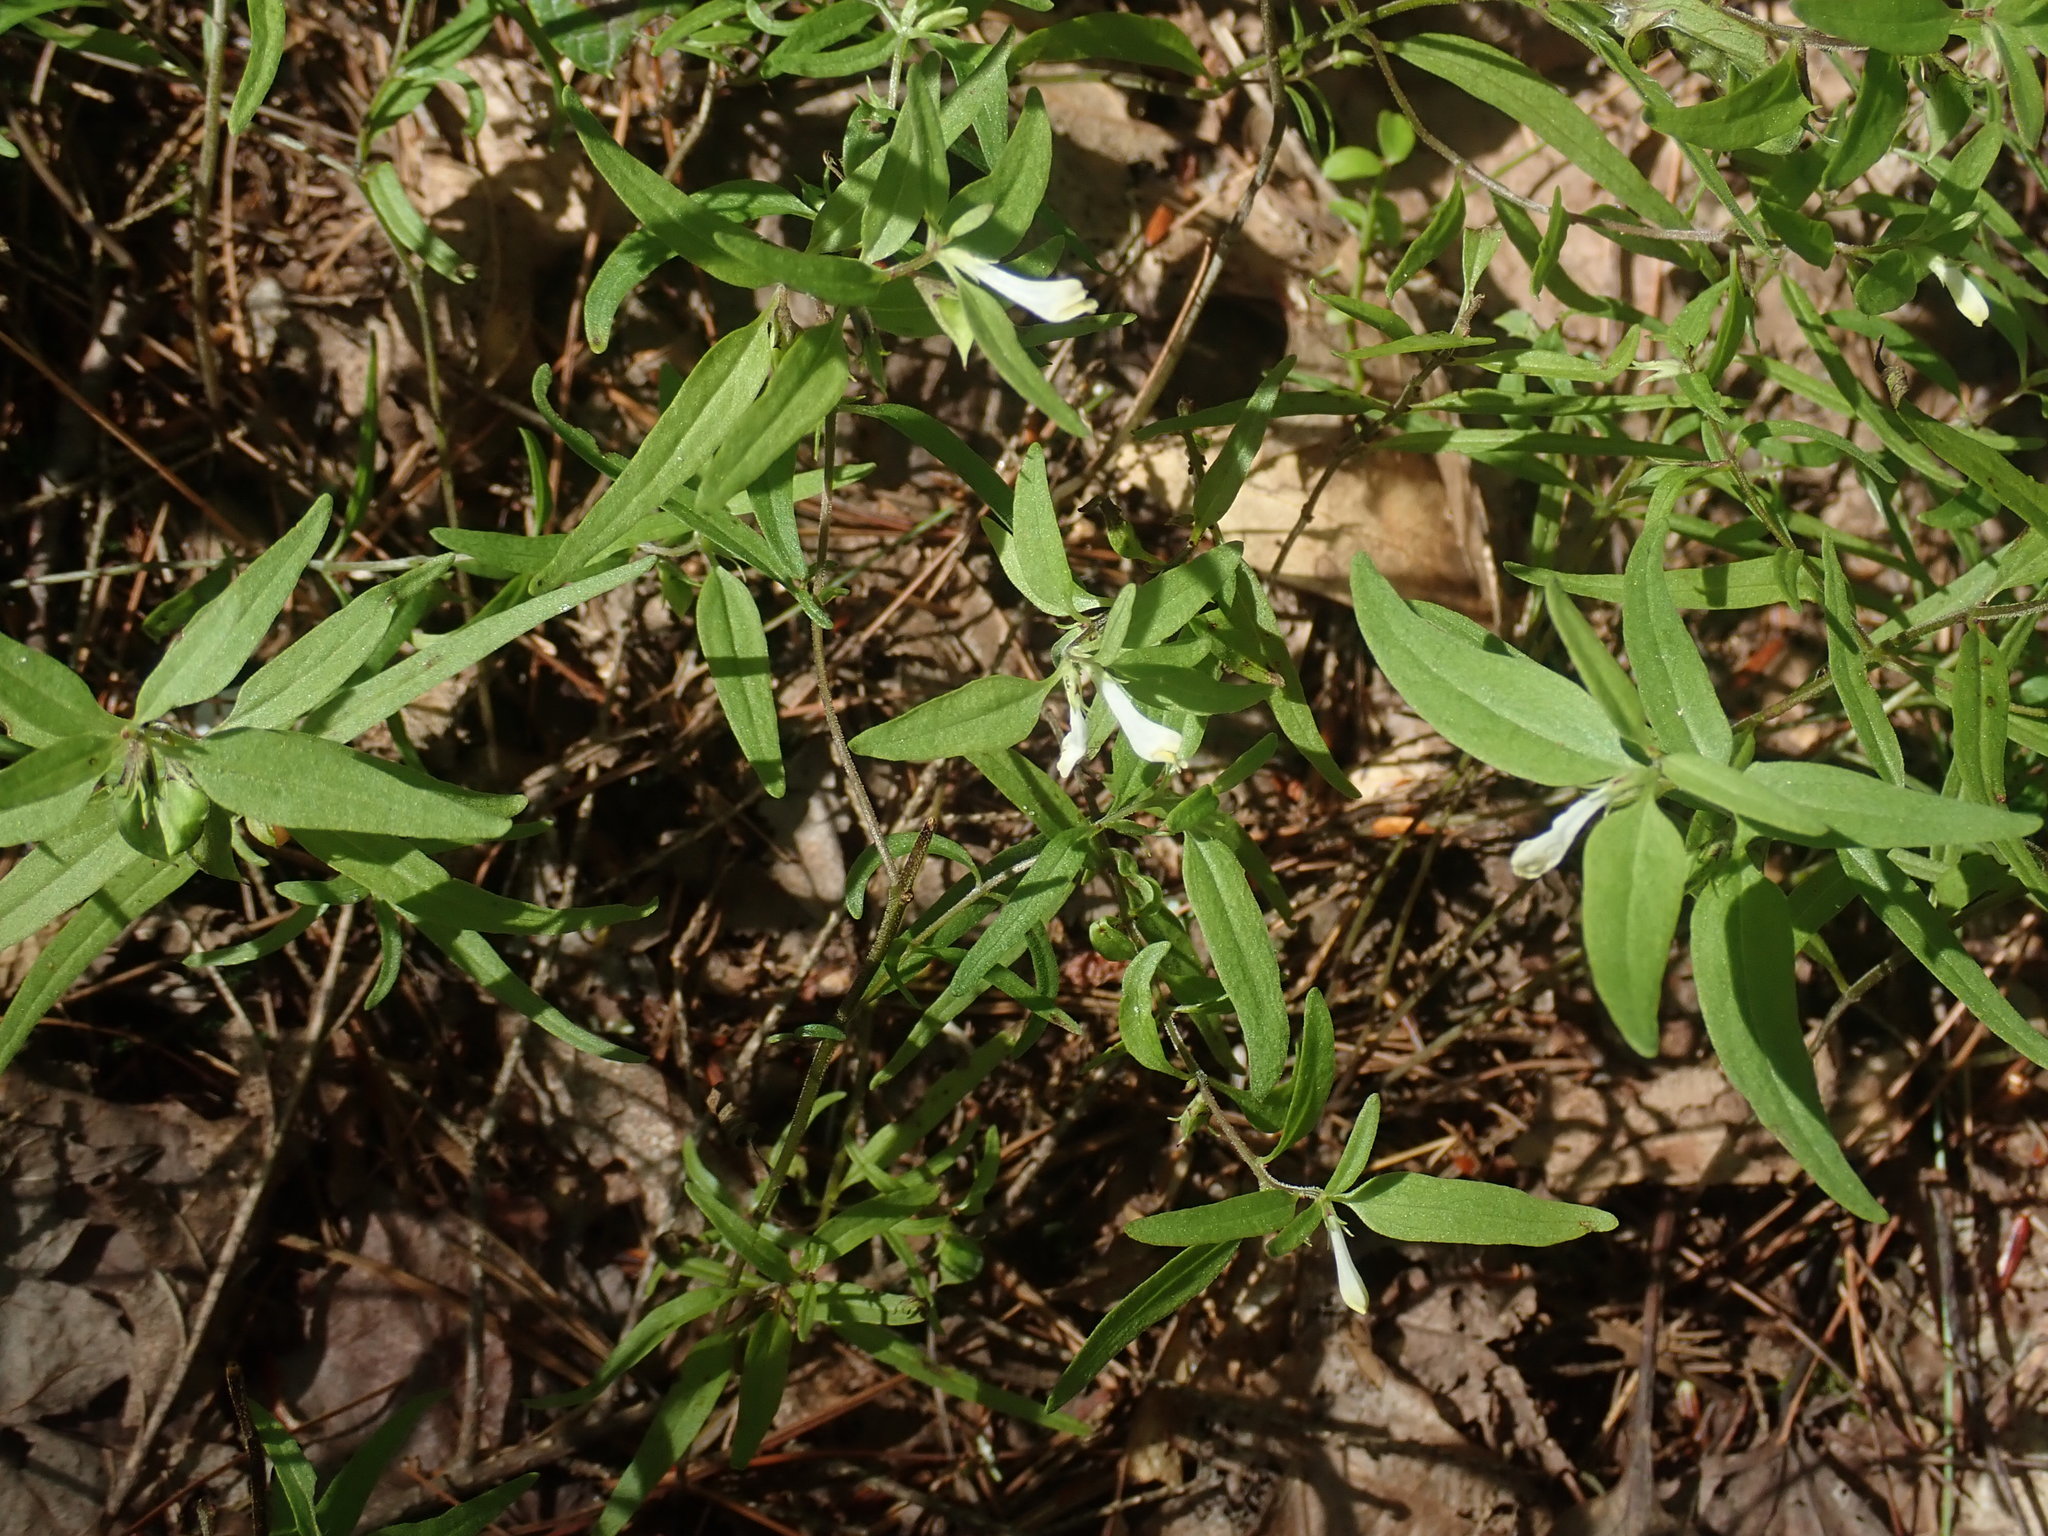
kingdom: Plantae
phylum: Tracheophyta
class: Magnoliopsida
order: Lamiales
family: Orobanchaceae
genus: Melampyrum
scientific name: Melampyrum lineare
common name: American cow-wheat
